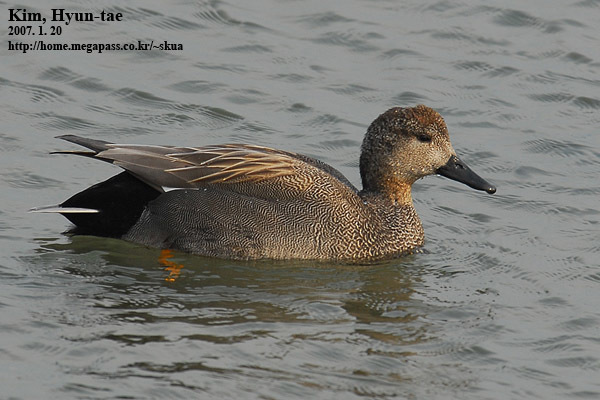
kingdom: Animalia
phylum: Chordata
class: Aves
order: Anseriformes
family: Anatidae
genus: Mareca
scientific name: Mareca strepera
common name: Gadwall
